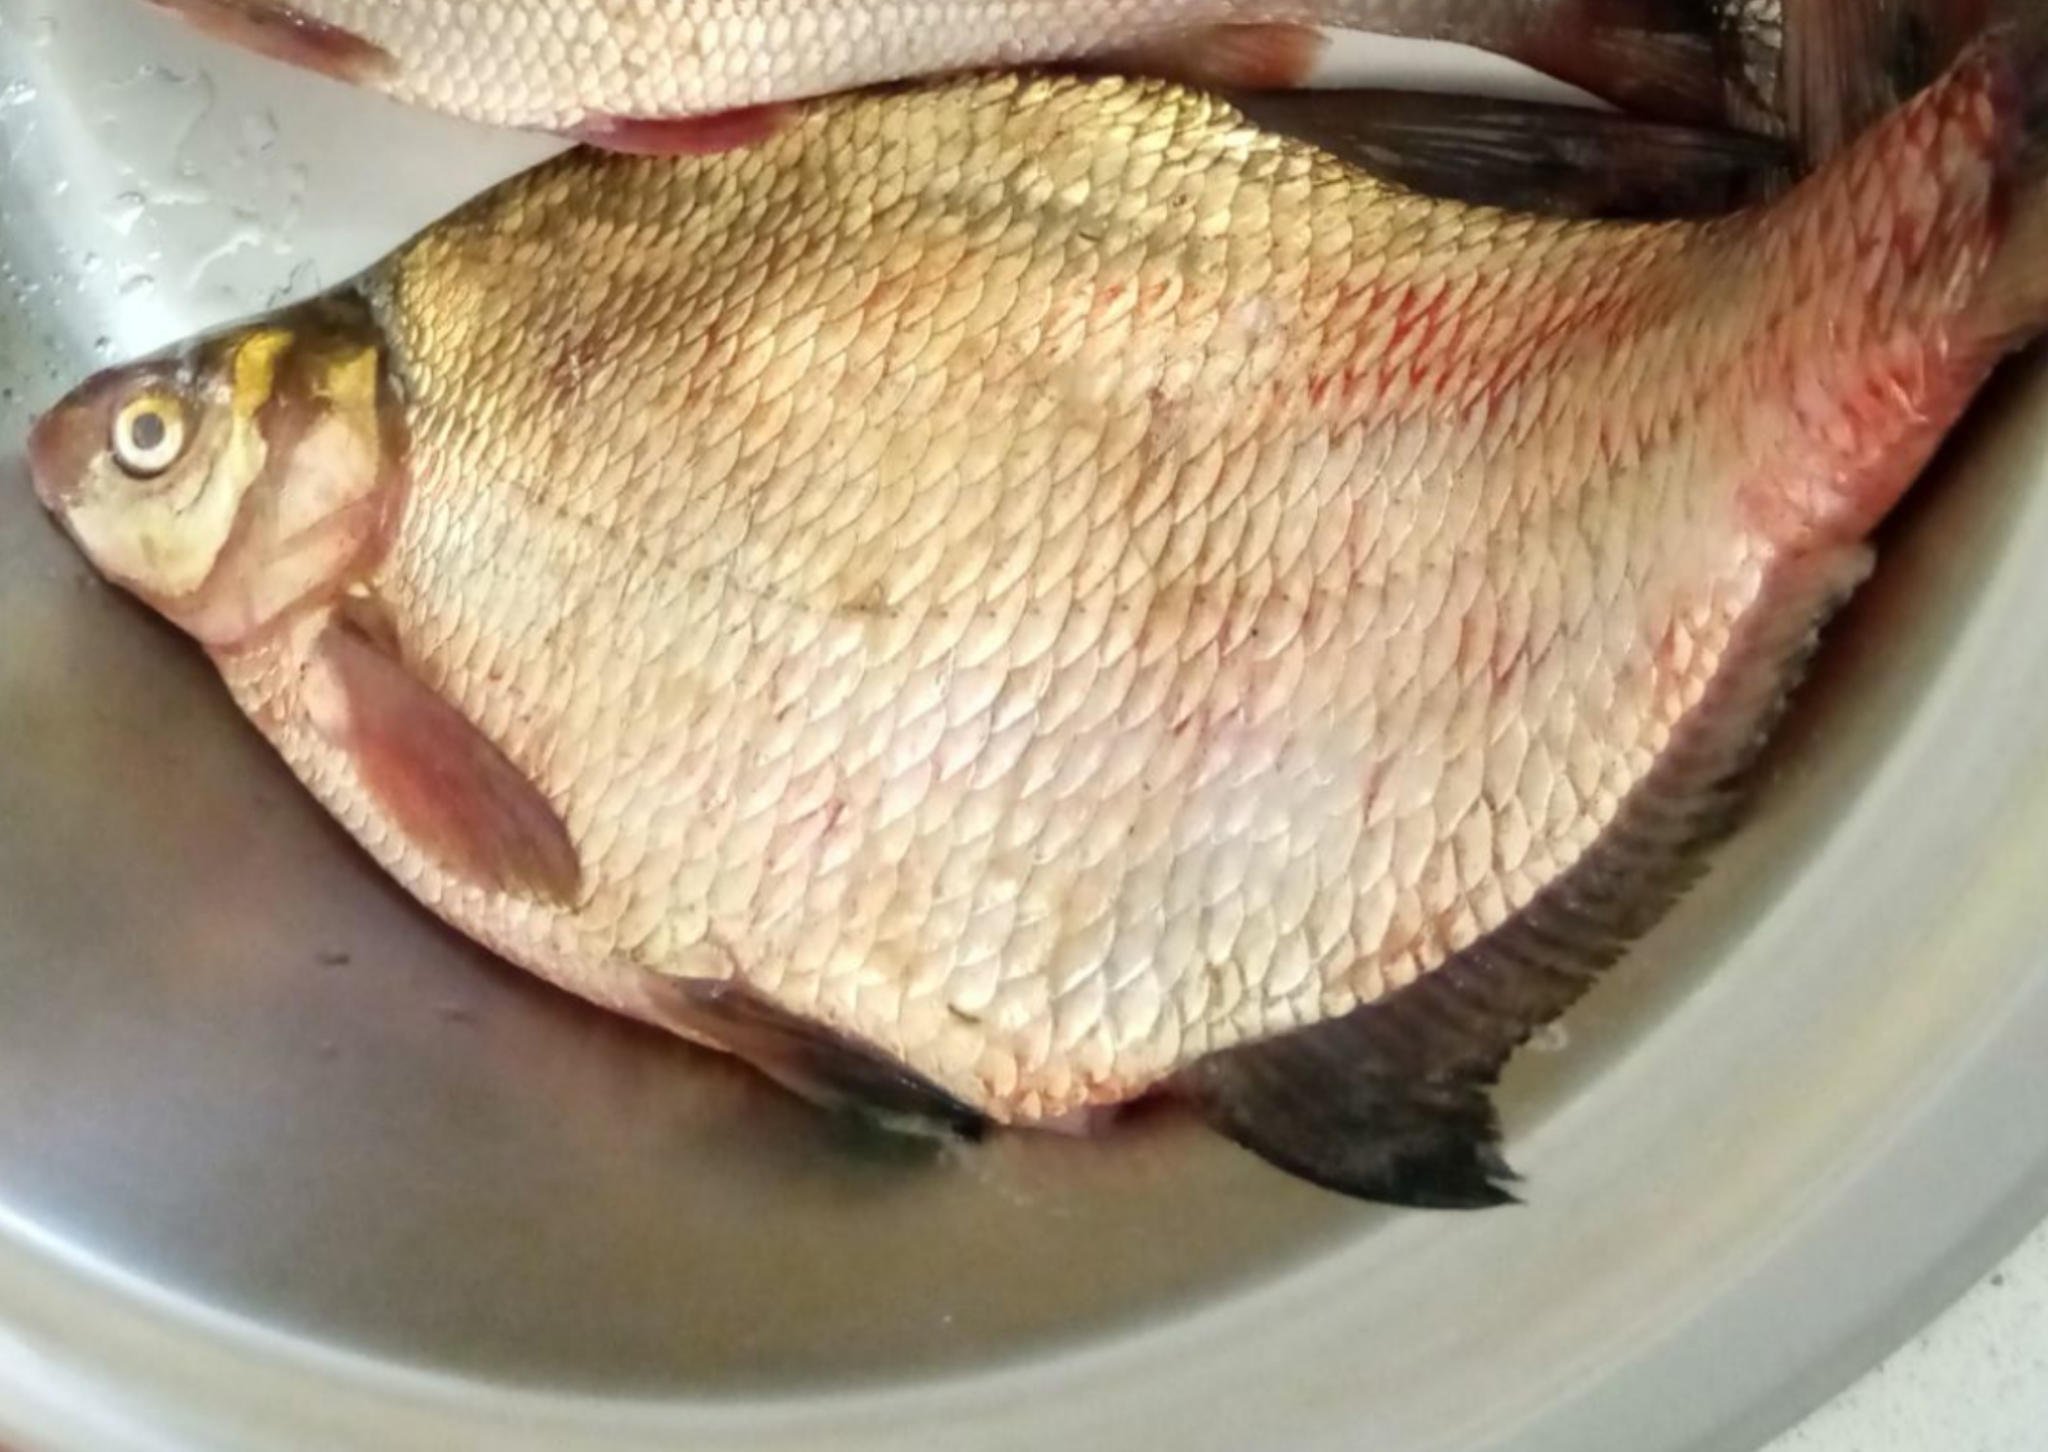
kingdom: Animalia
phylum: Chordata
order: Cypriniformes
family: Cyprinidae
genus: Abramis
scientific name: Abramis brama
